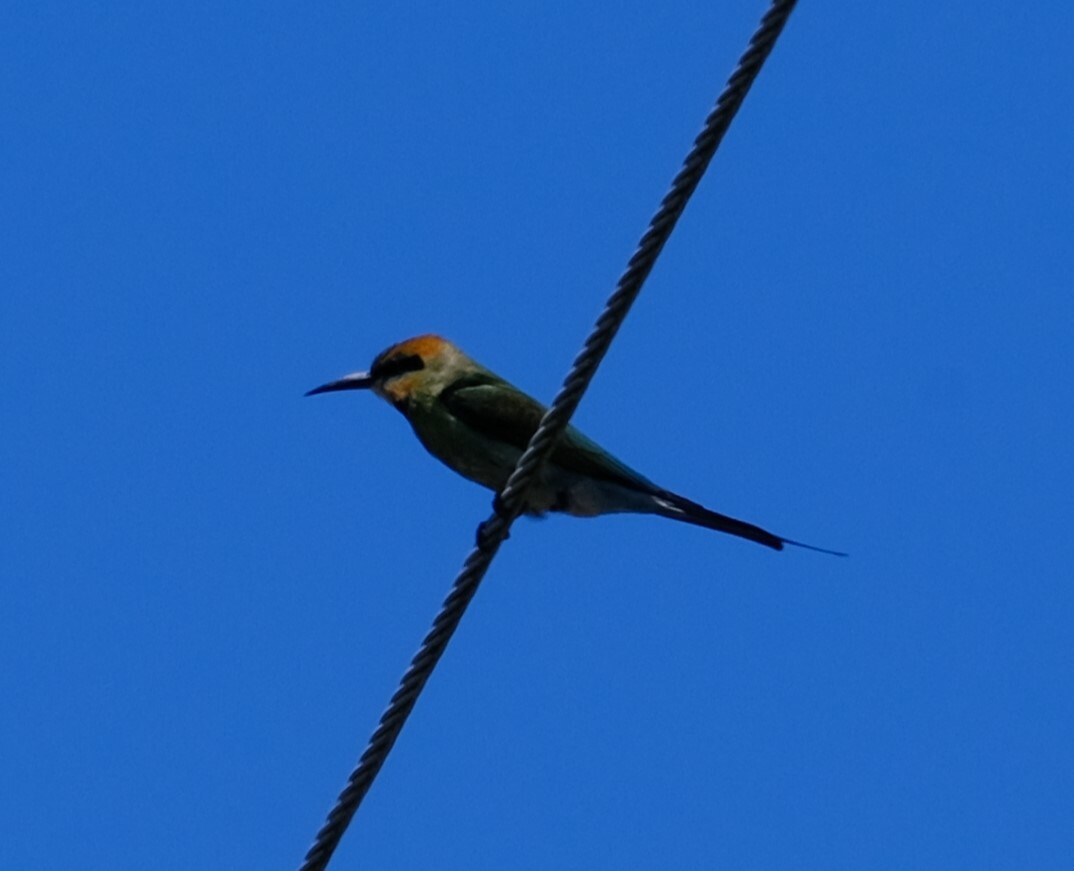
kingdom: Animalia
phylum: Chordata
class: Aves
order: Coraciiformes
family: Meropidae
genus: Merops
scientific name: Merops ornatus
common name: Rainbow bee-eater
